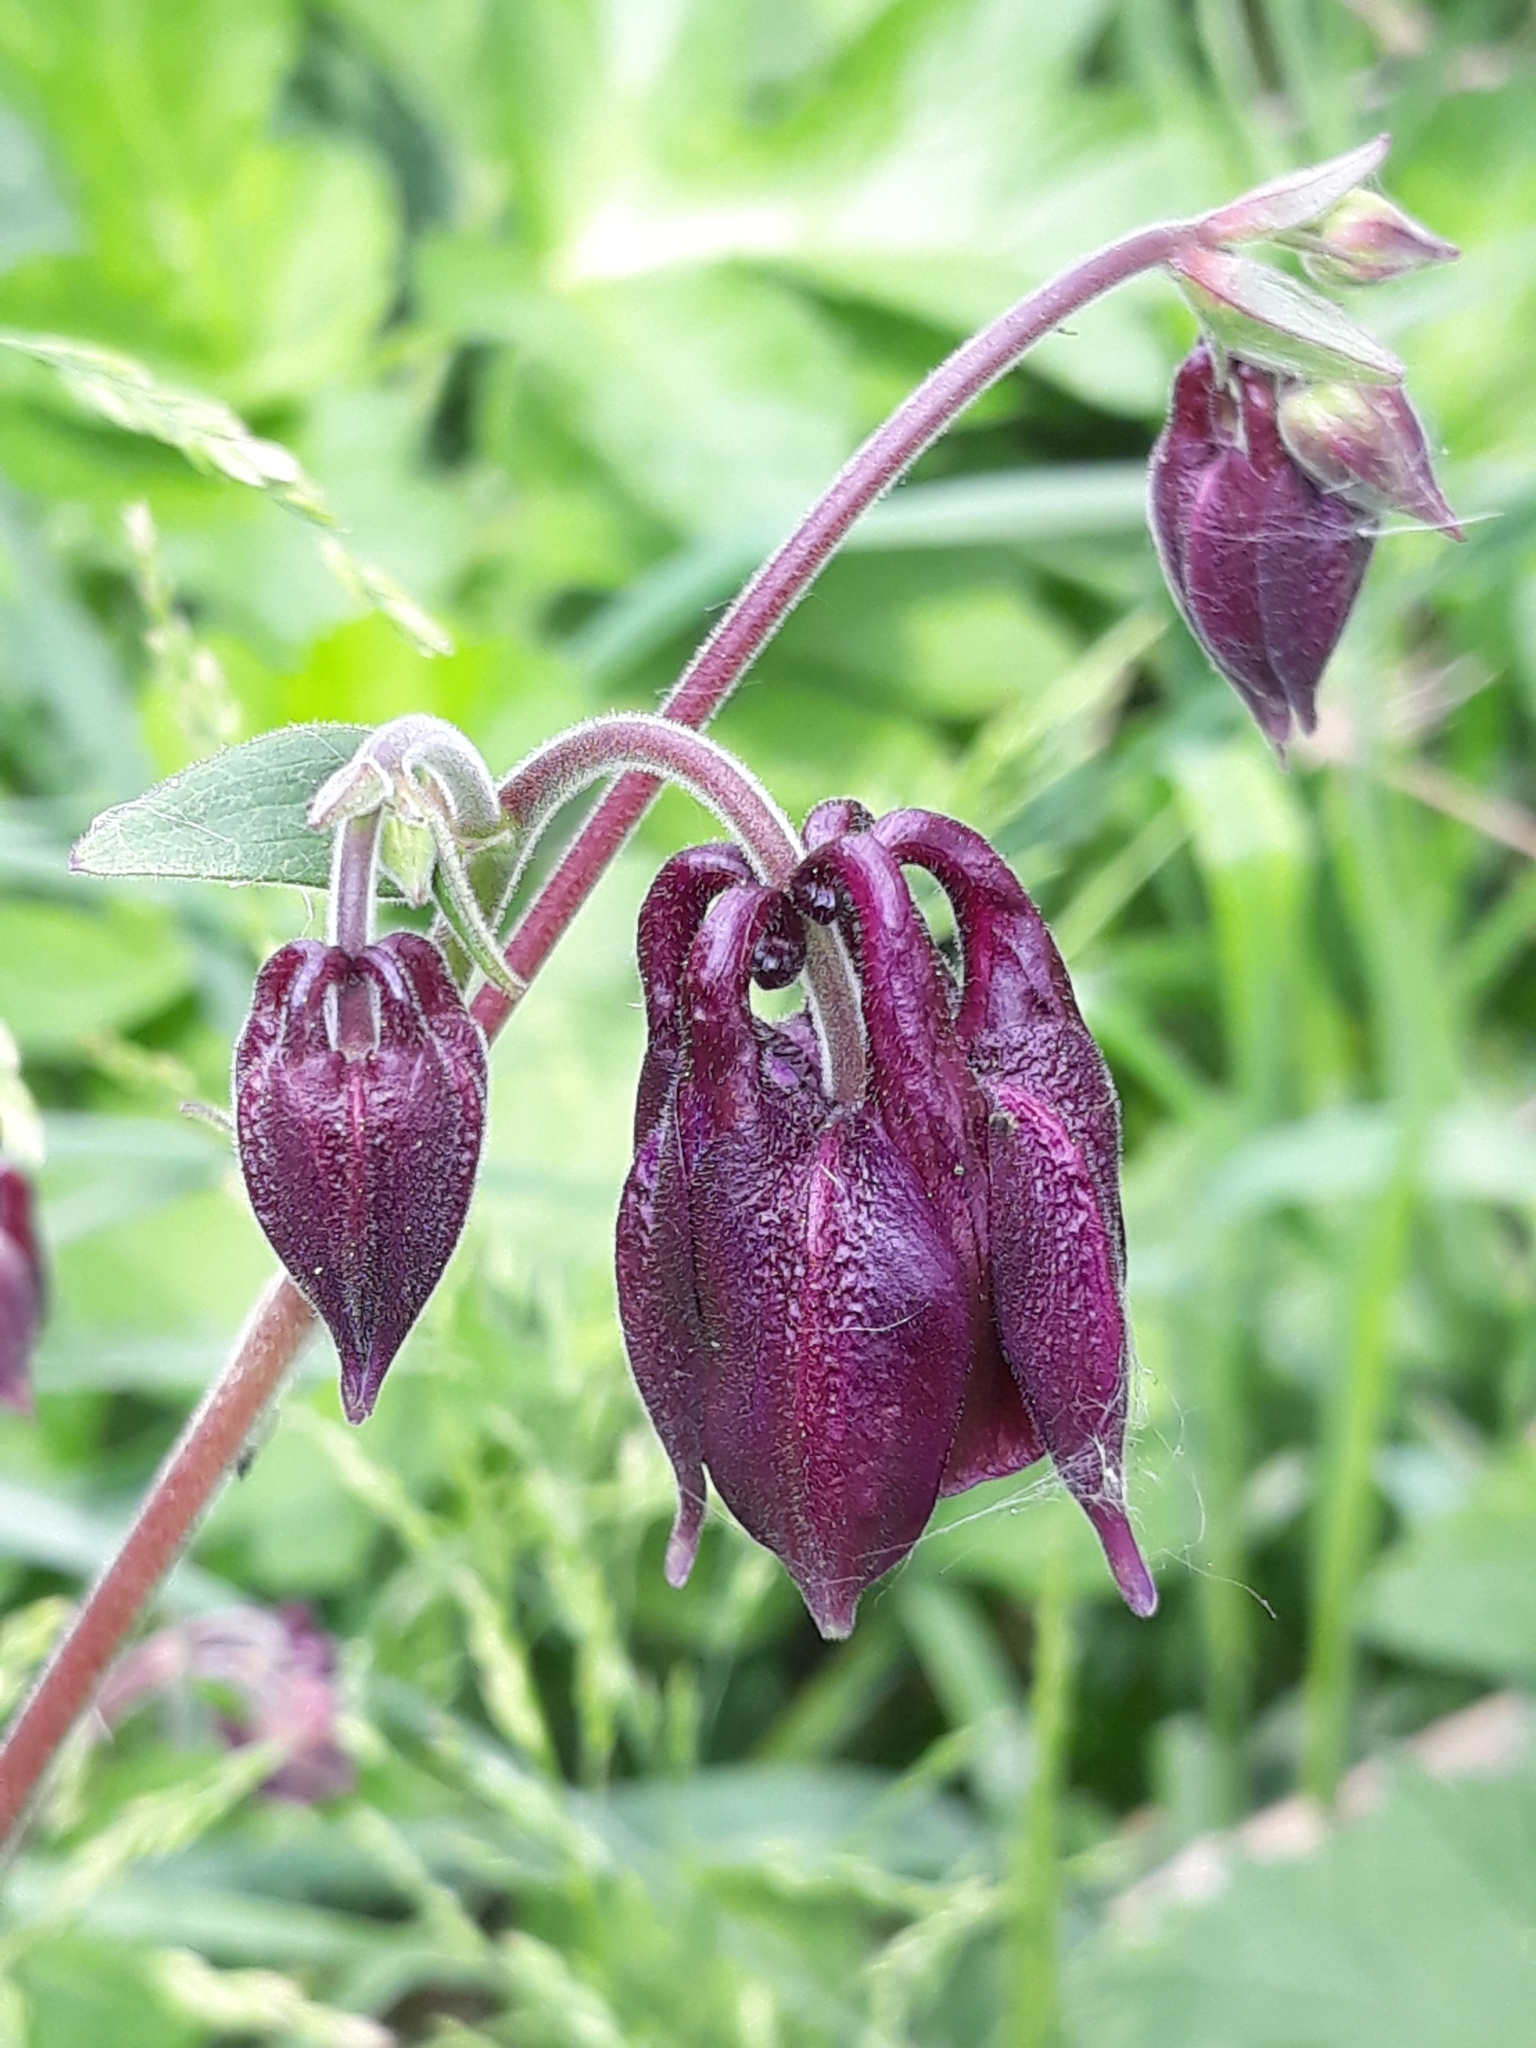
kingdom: Plantae
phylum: Tracheophyta
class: Magnoliopsida
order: Ranunculales
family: Ranunculaceae
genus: Aquilegia
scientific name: Aquilegia atrata
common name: Dark columbine
